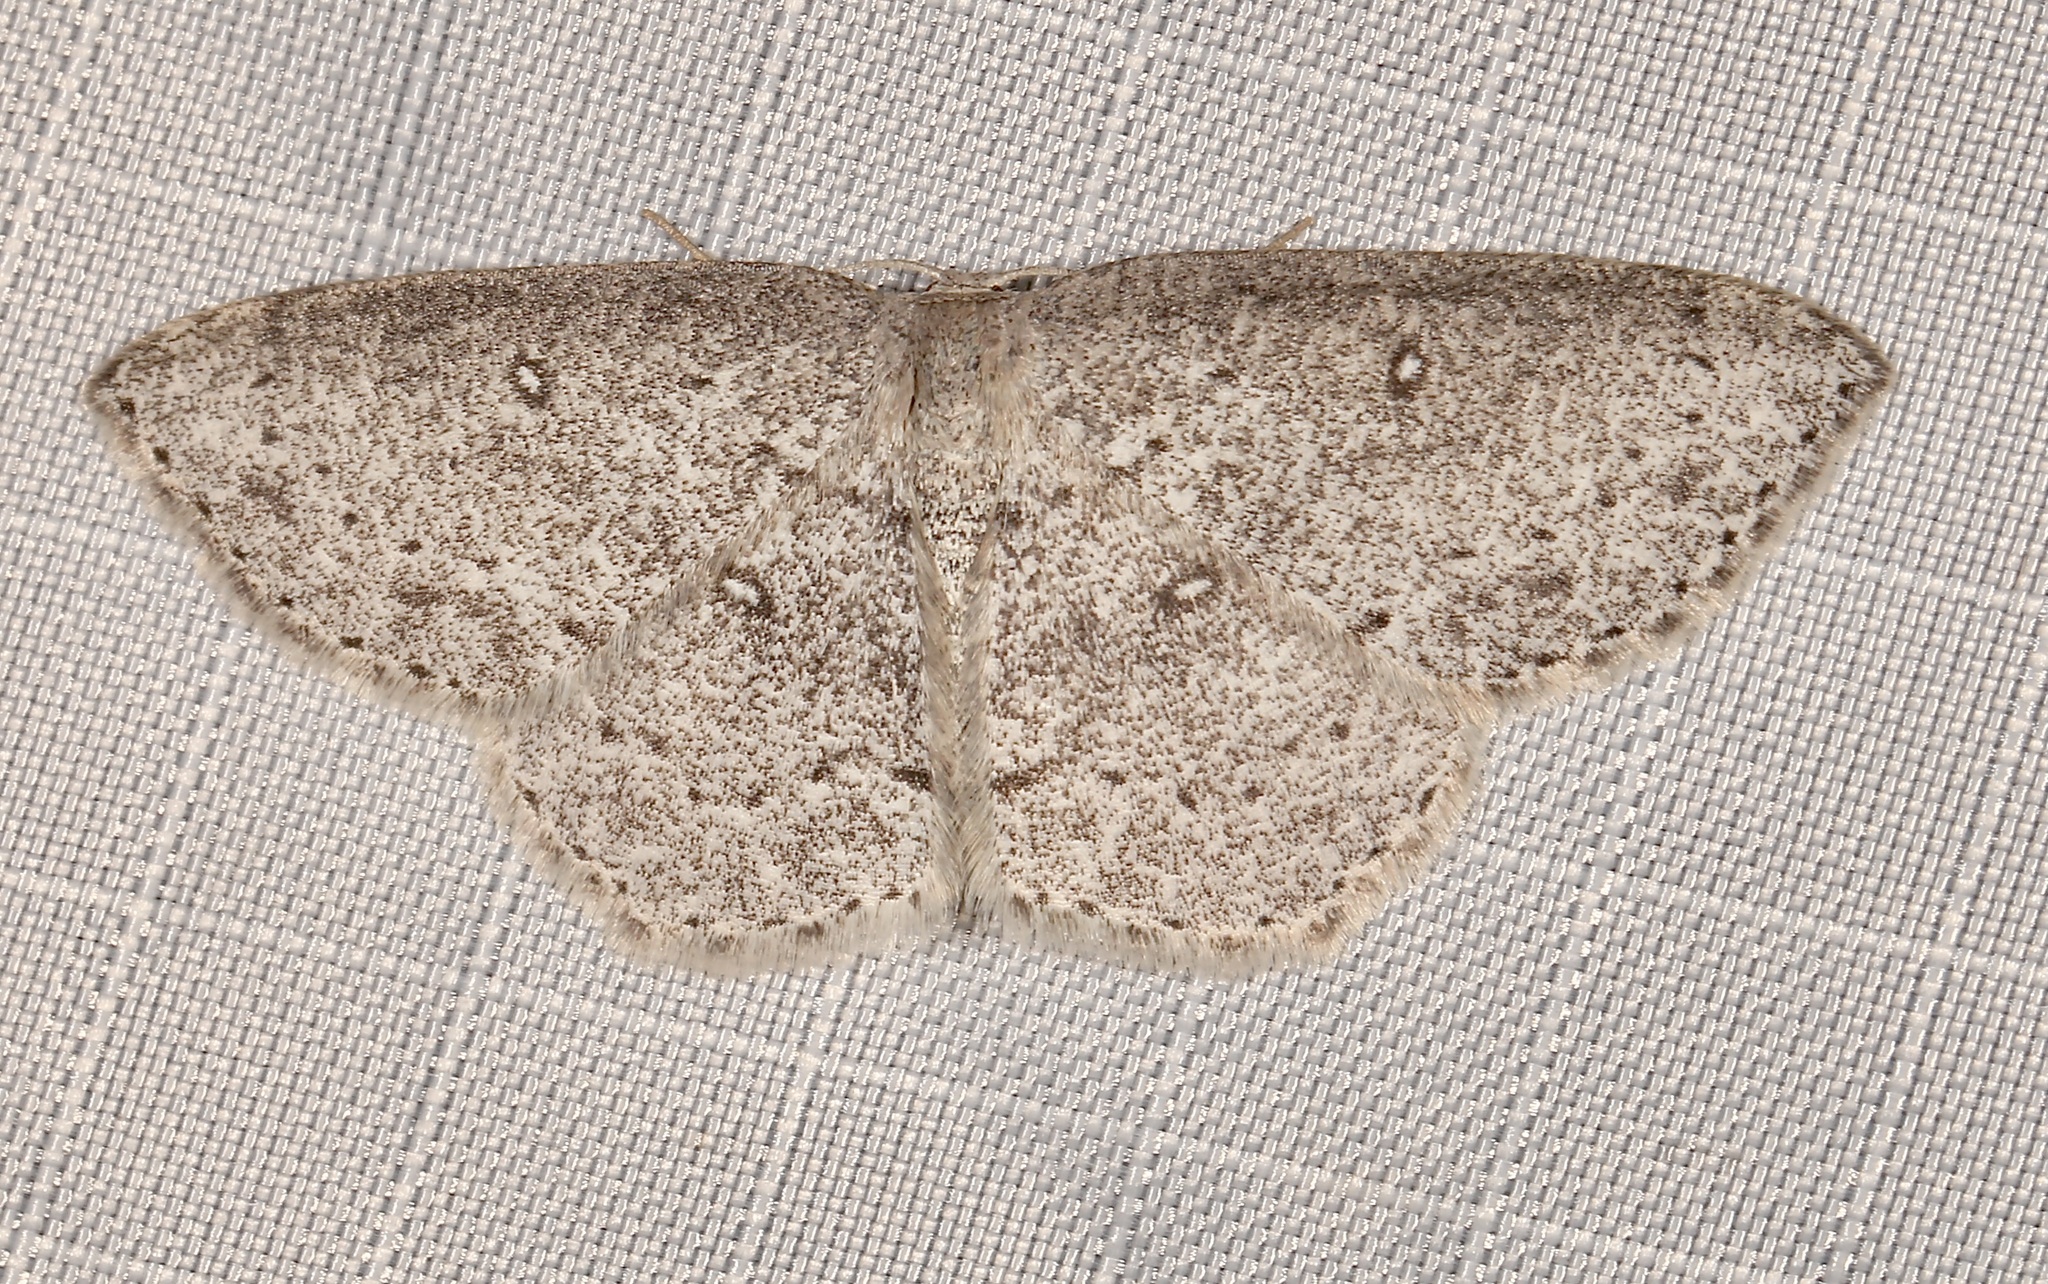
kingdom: Animalia
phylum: Arthropoda
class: Insecta
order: Lepidoptera
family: Geometridae
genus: Cyclophora
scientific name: Cyclophora pendulinaria
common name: Sweet fern geometer
